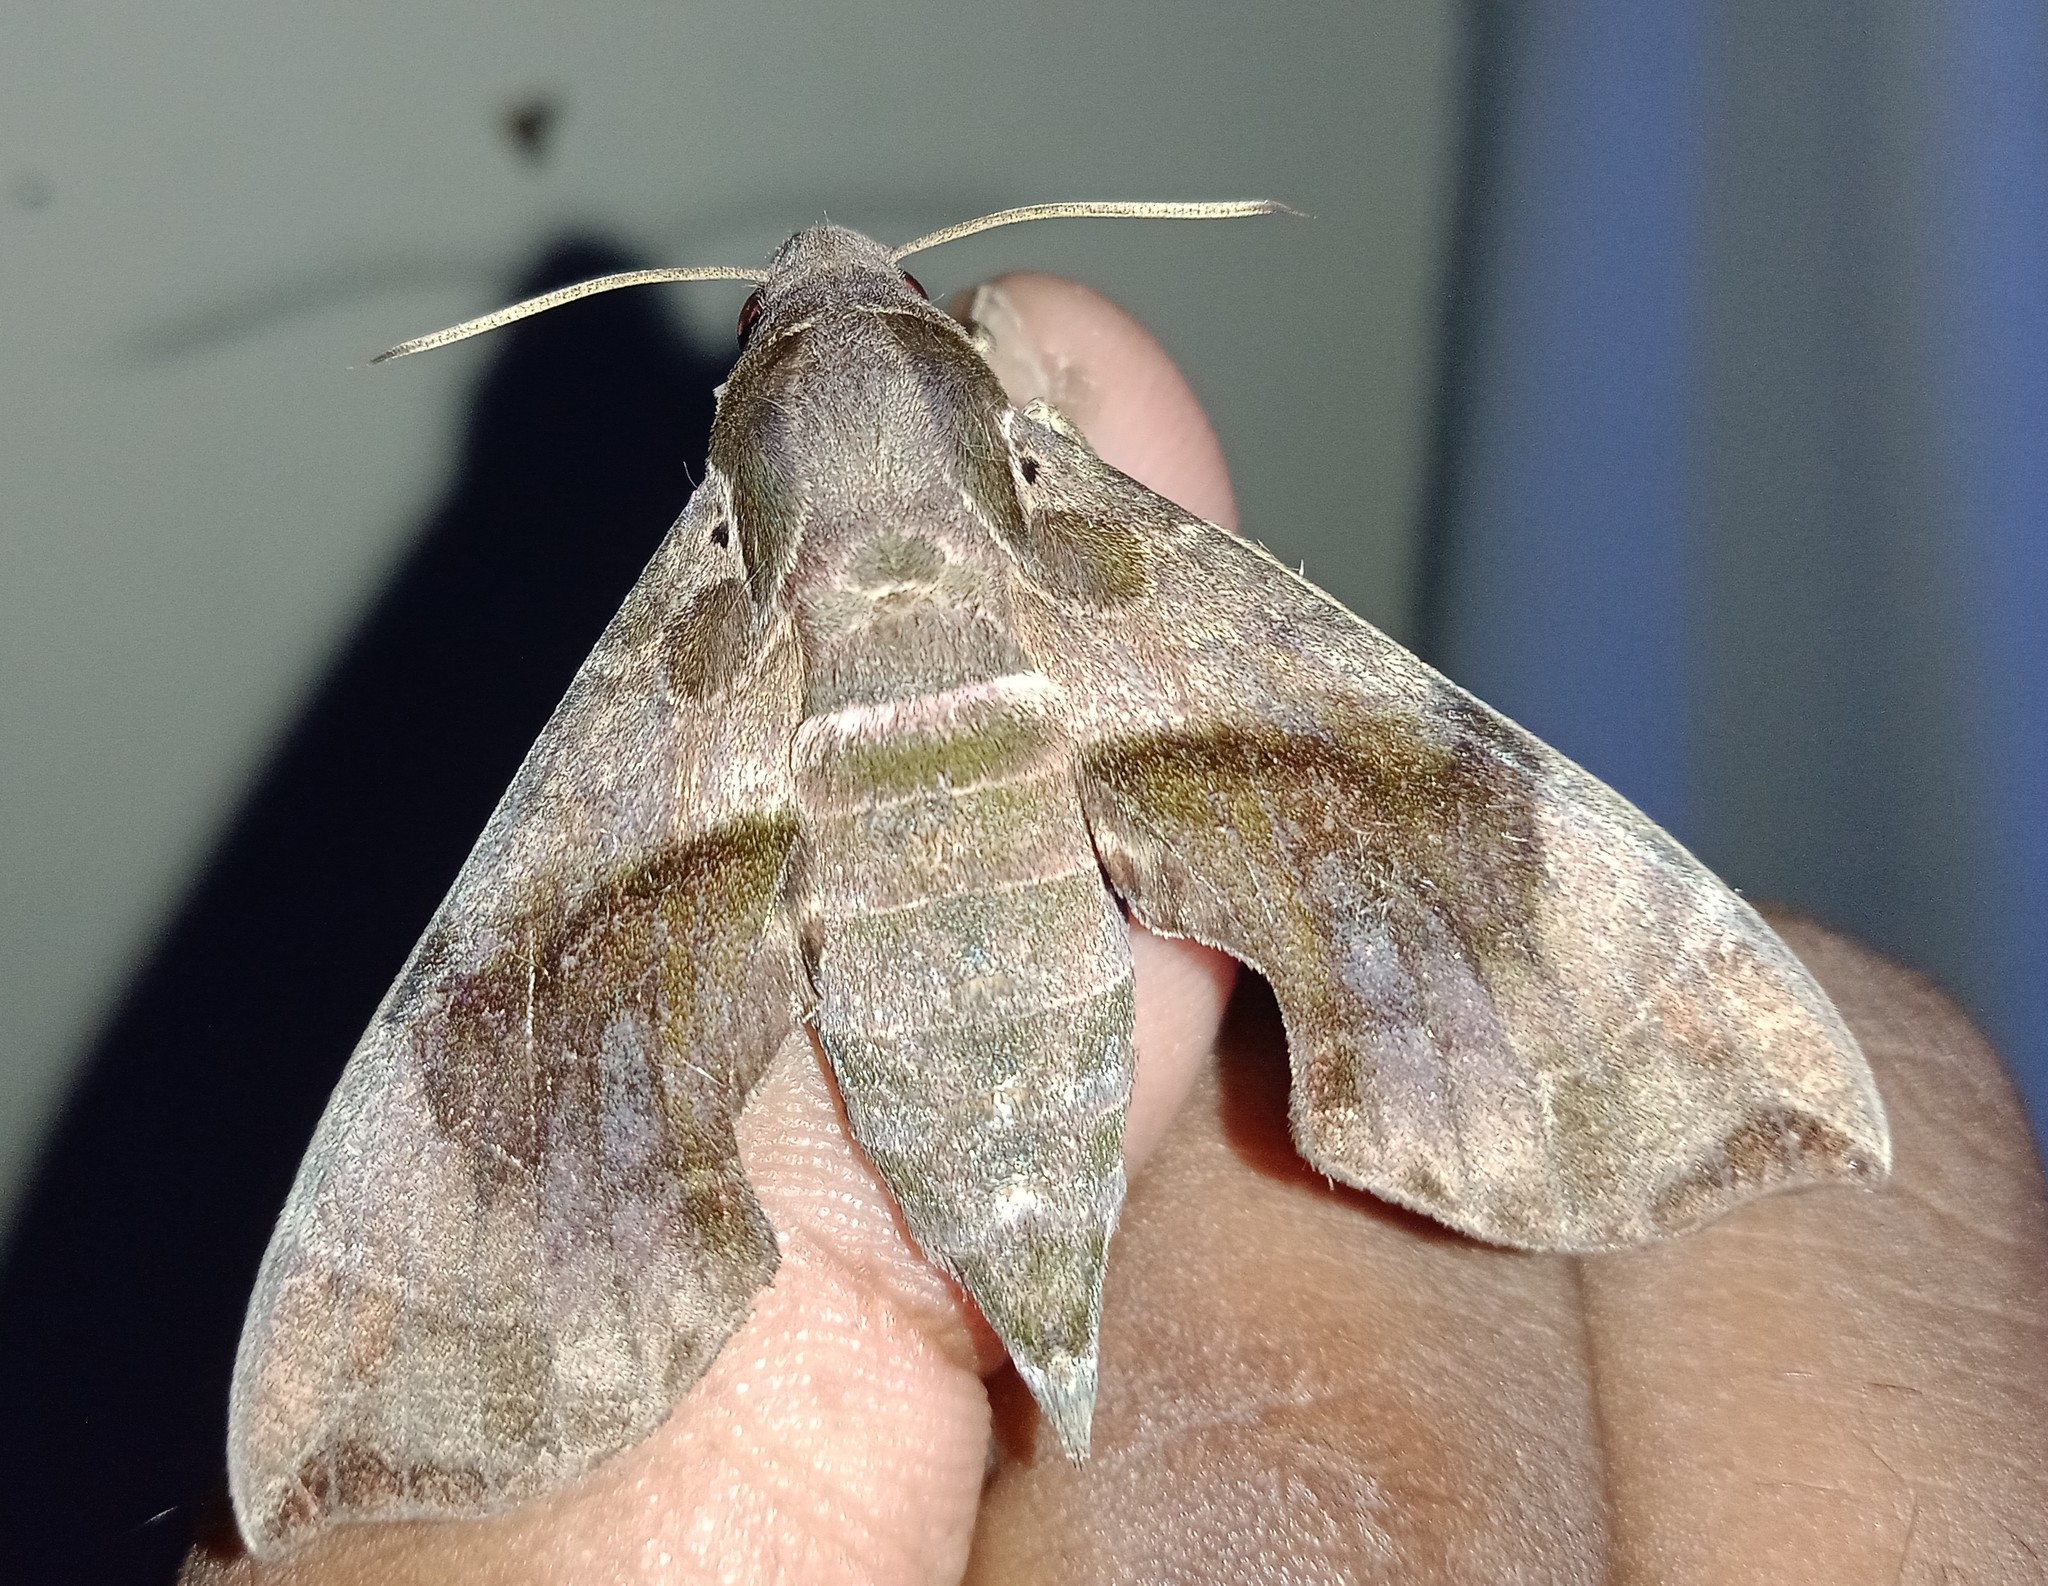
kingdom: Animalia
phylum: Arthropoda
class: Insecta
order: Lepidoptera
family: Sphingidae
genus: Daphnis
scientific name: Daphnis minima
